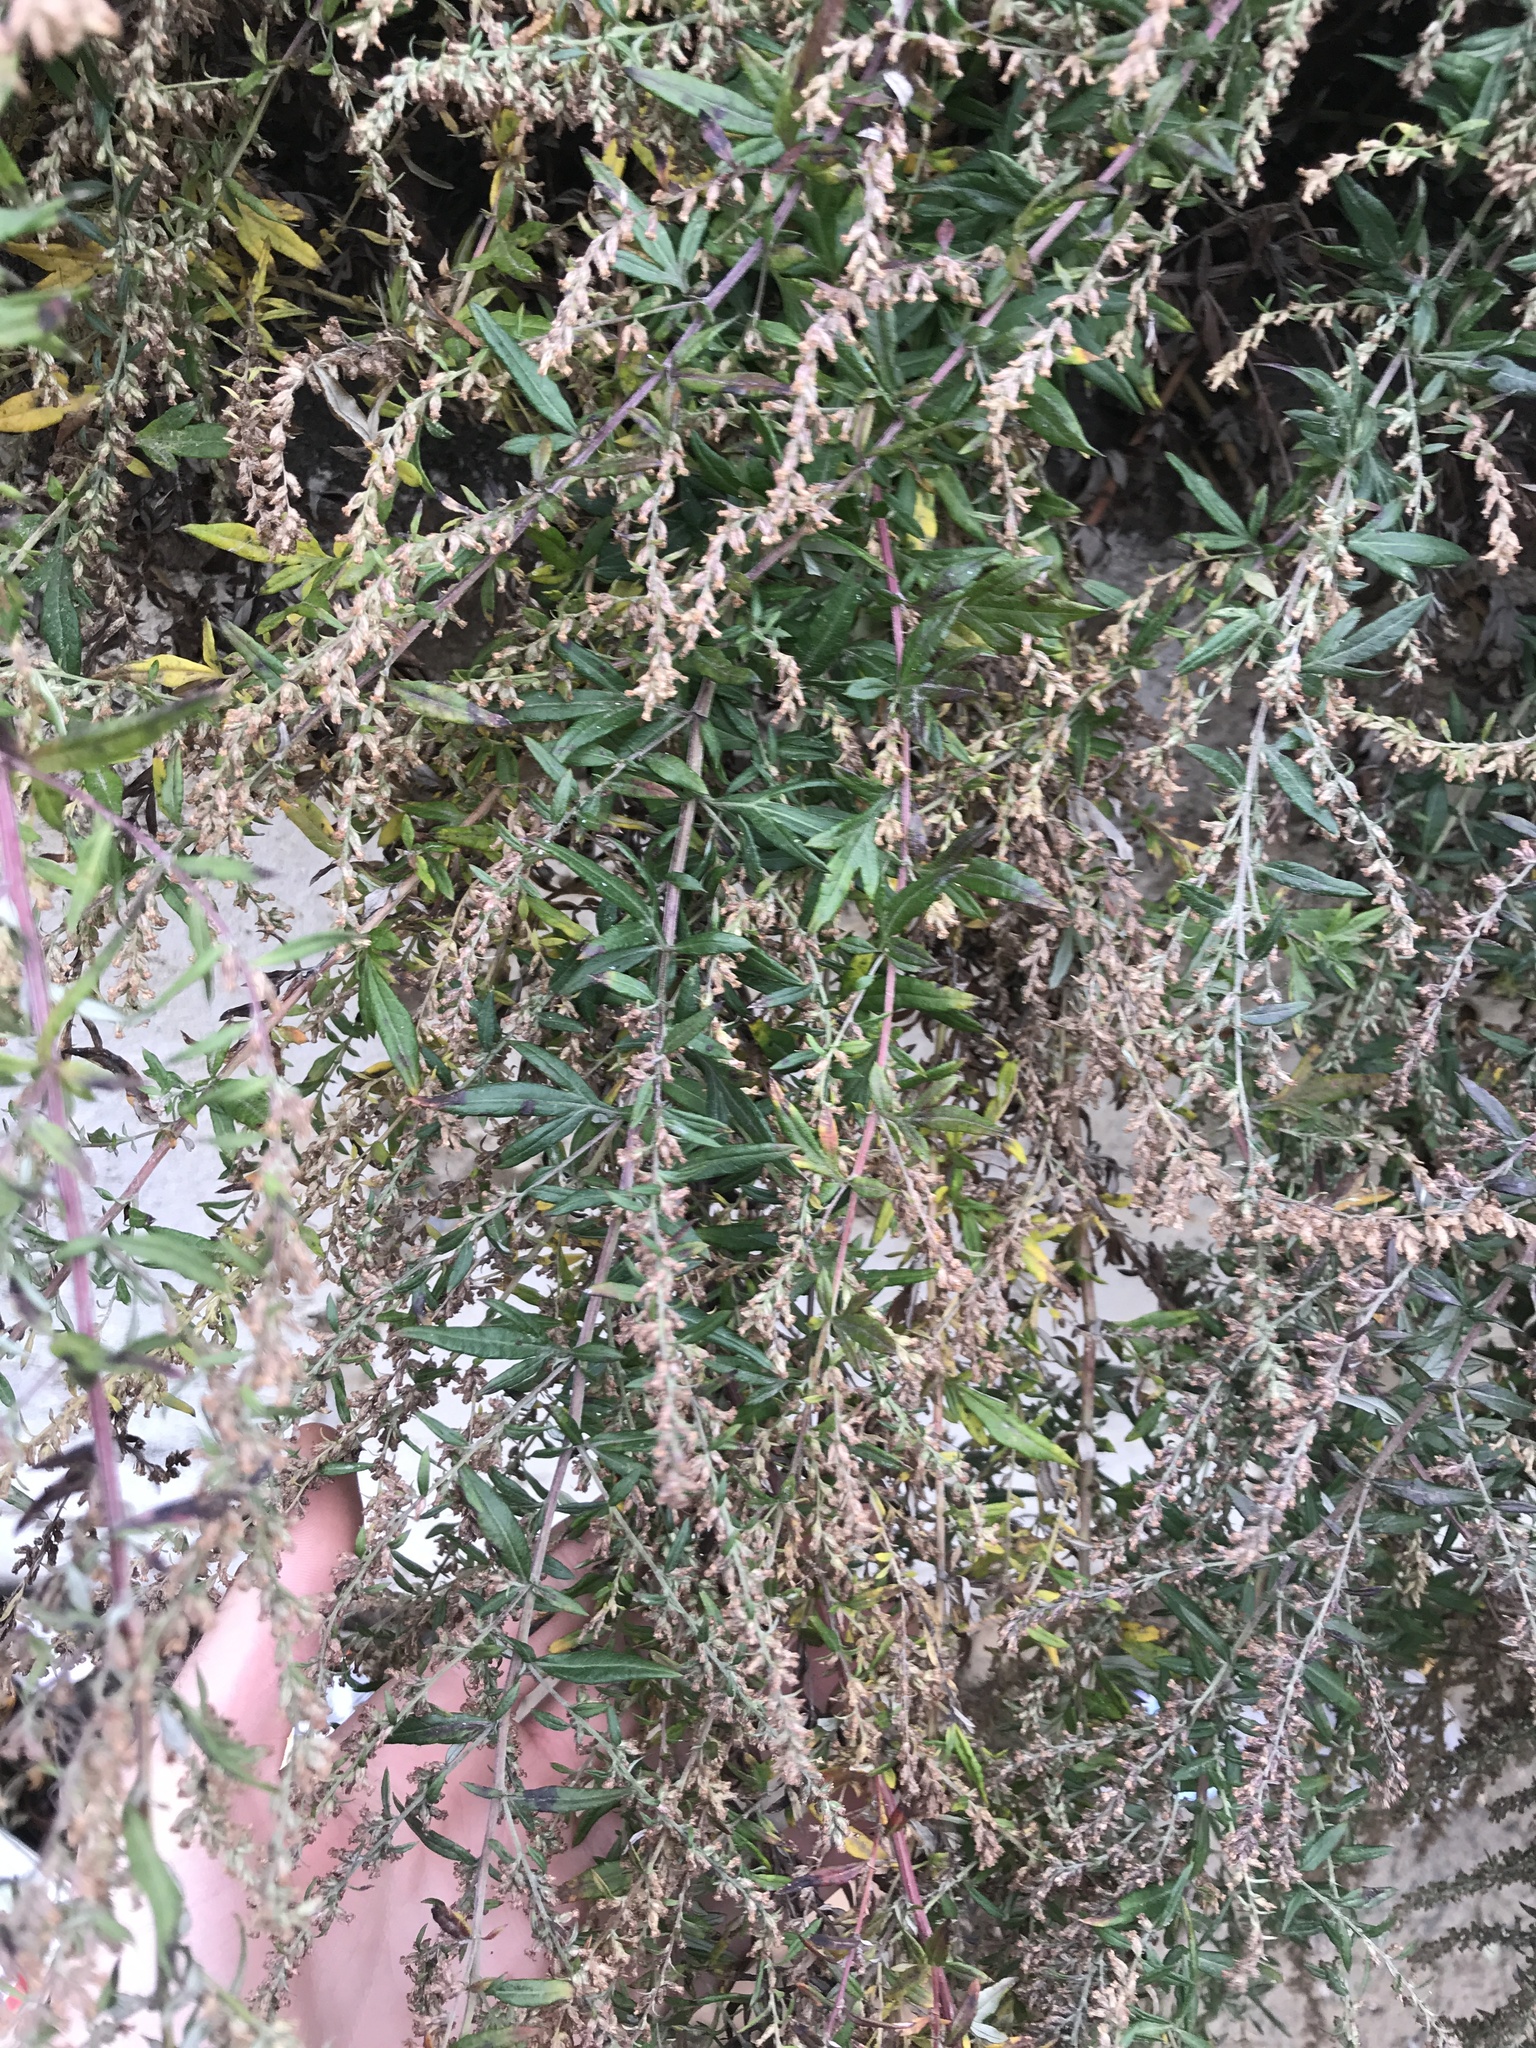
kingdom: Plantae
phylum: Tracheophyta
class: Magnoliopsida
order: Asterales
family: Asteraceae
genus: Artemisia
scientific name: Artemisia vulgaris
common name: Mugwort
